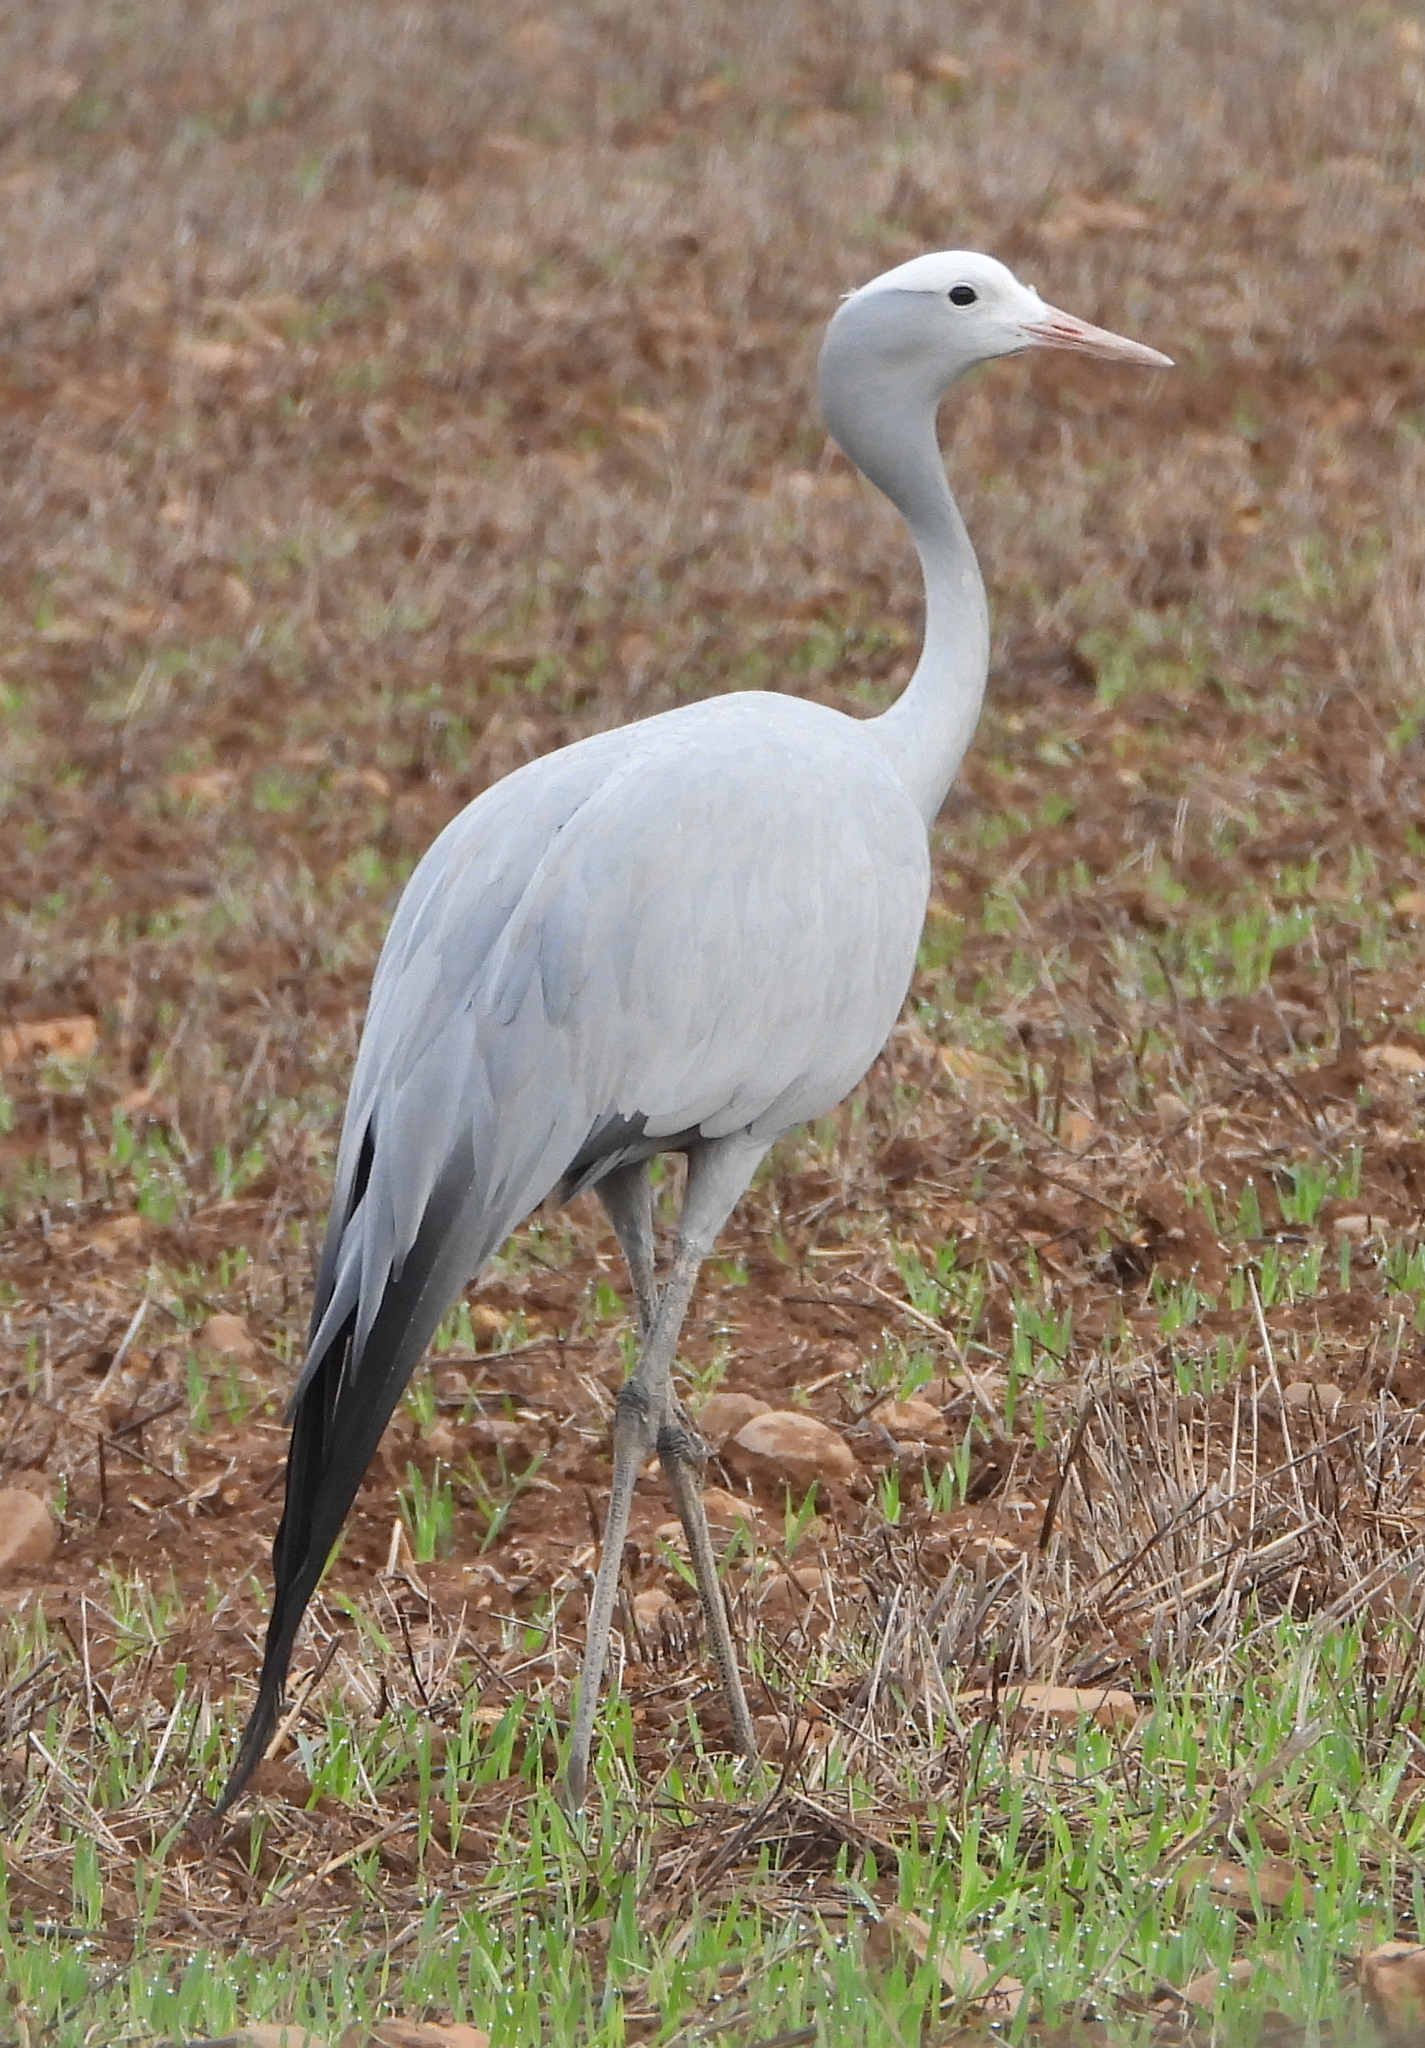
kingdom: Animalia
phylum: Chordata
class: Aves
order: Gruiformes
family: Gruidae
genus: Anthropoides
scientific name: Anthropoides paradiseus
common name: Blue crane
